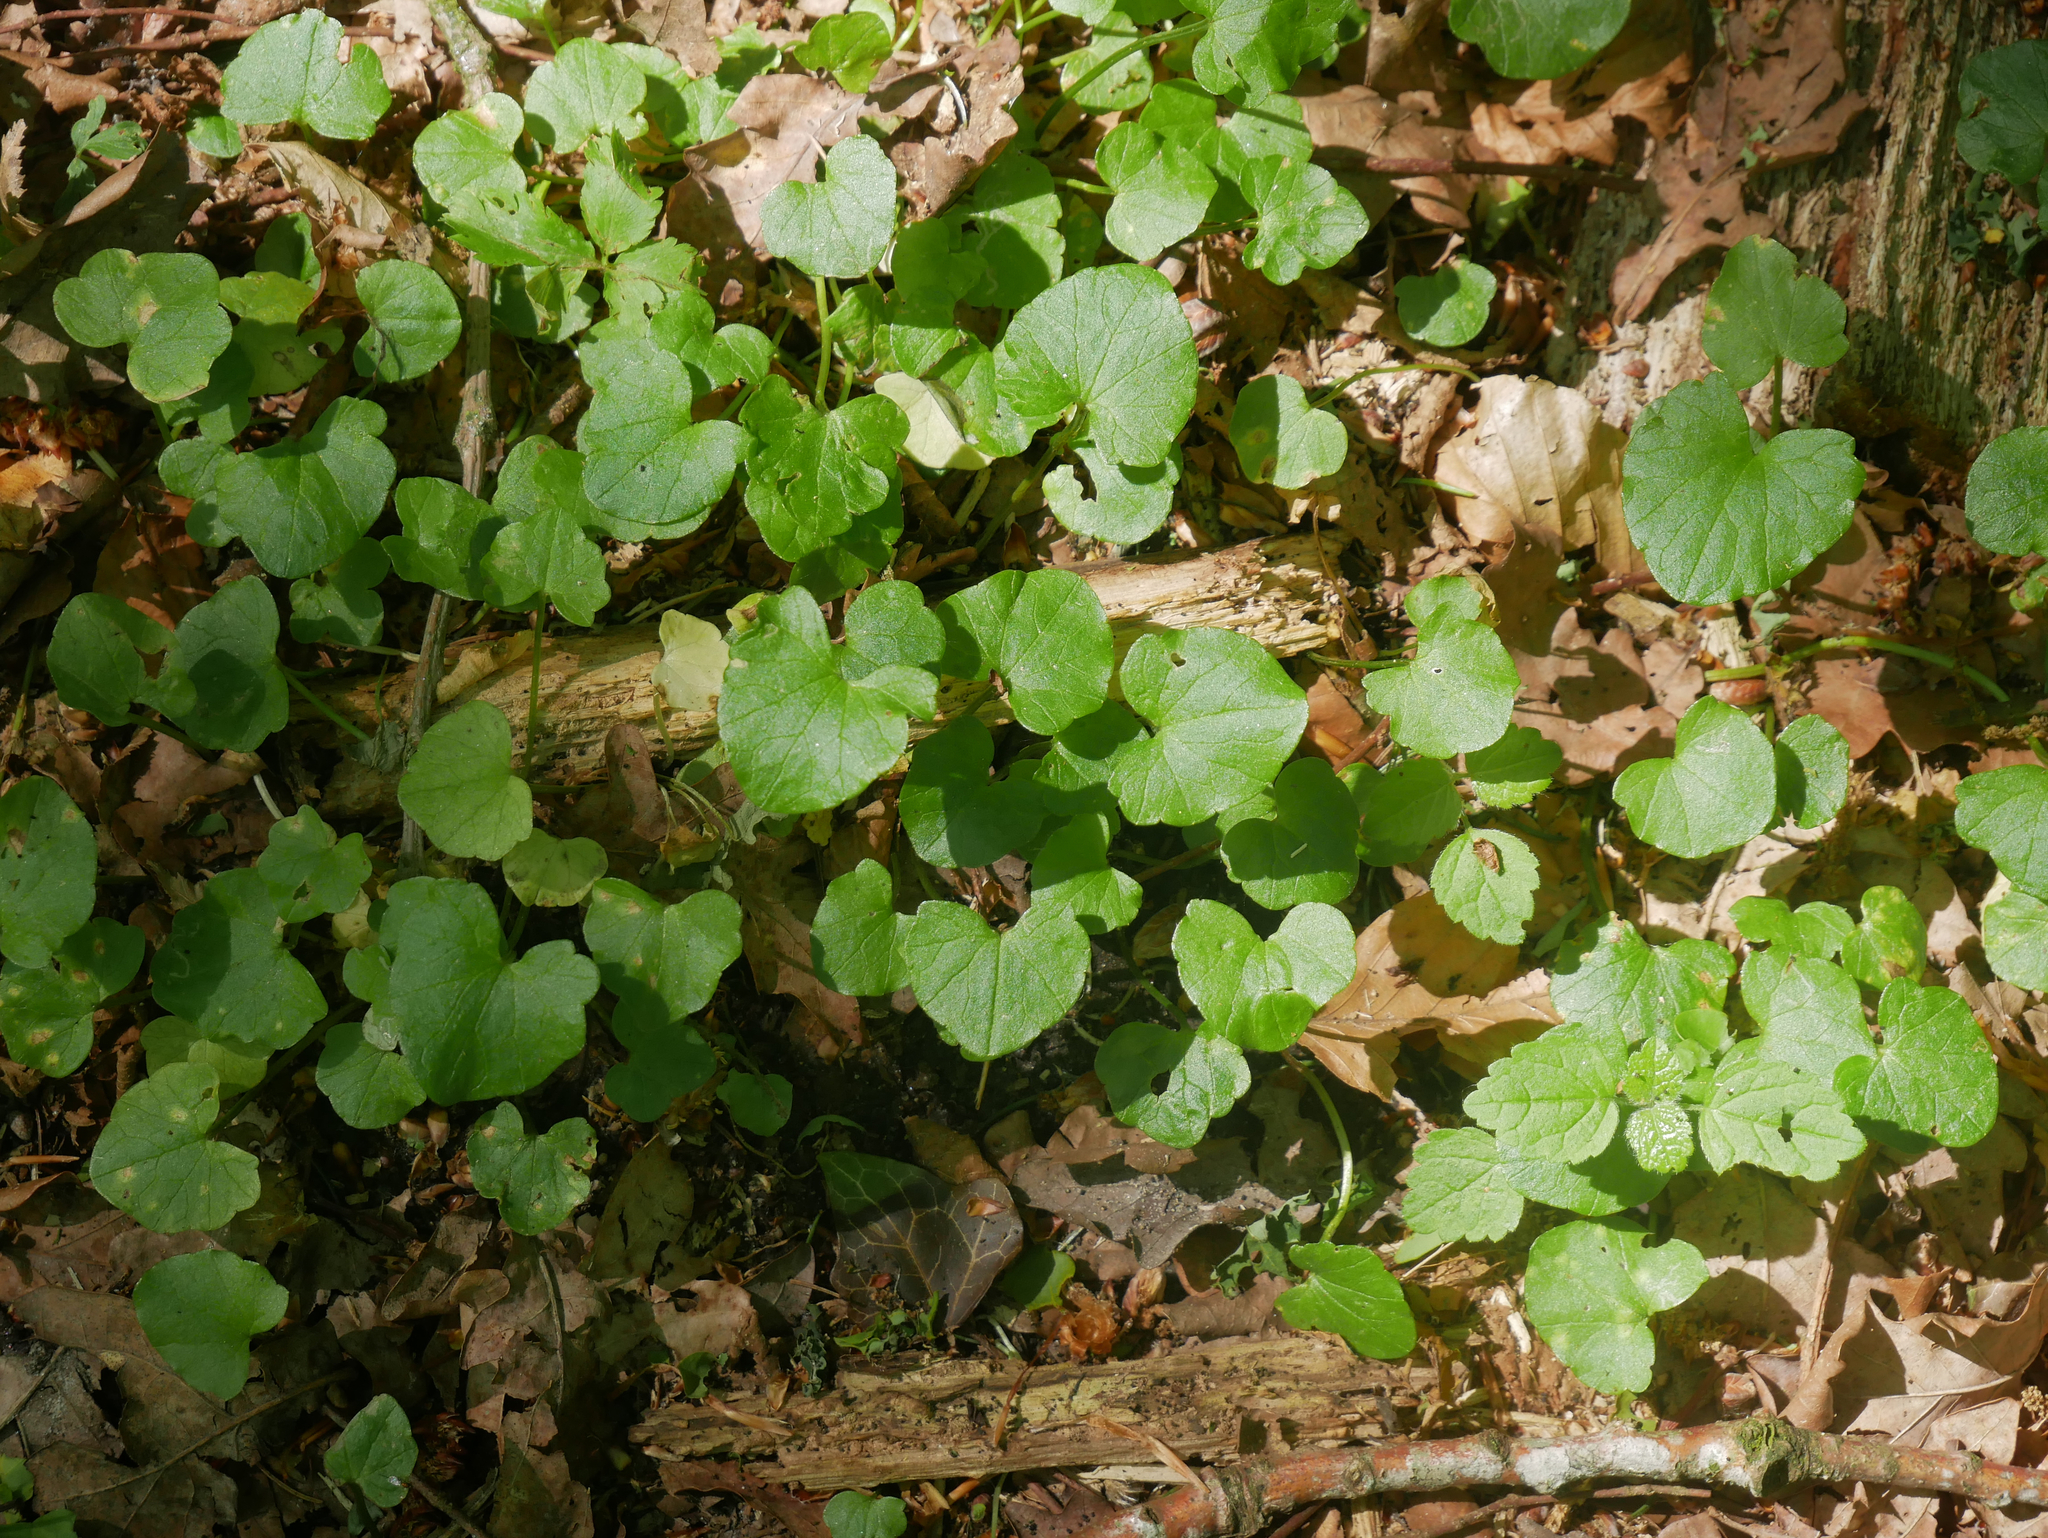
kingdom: Plantae
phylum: Tracheophyta
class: Magnoliopsida
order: Ranunculales
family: Ranunculaceae
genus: Ficaria
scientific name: Ficaria verna
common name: Lesser celandine
